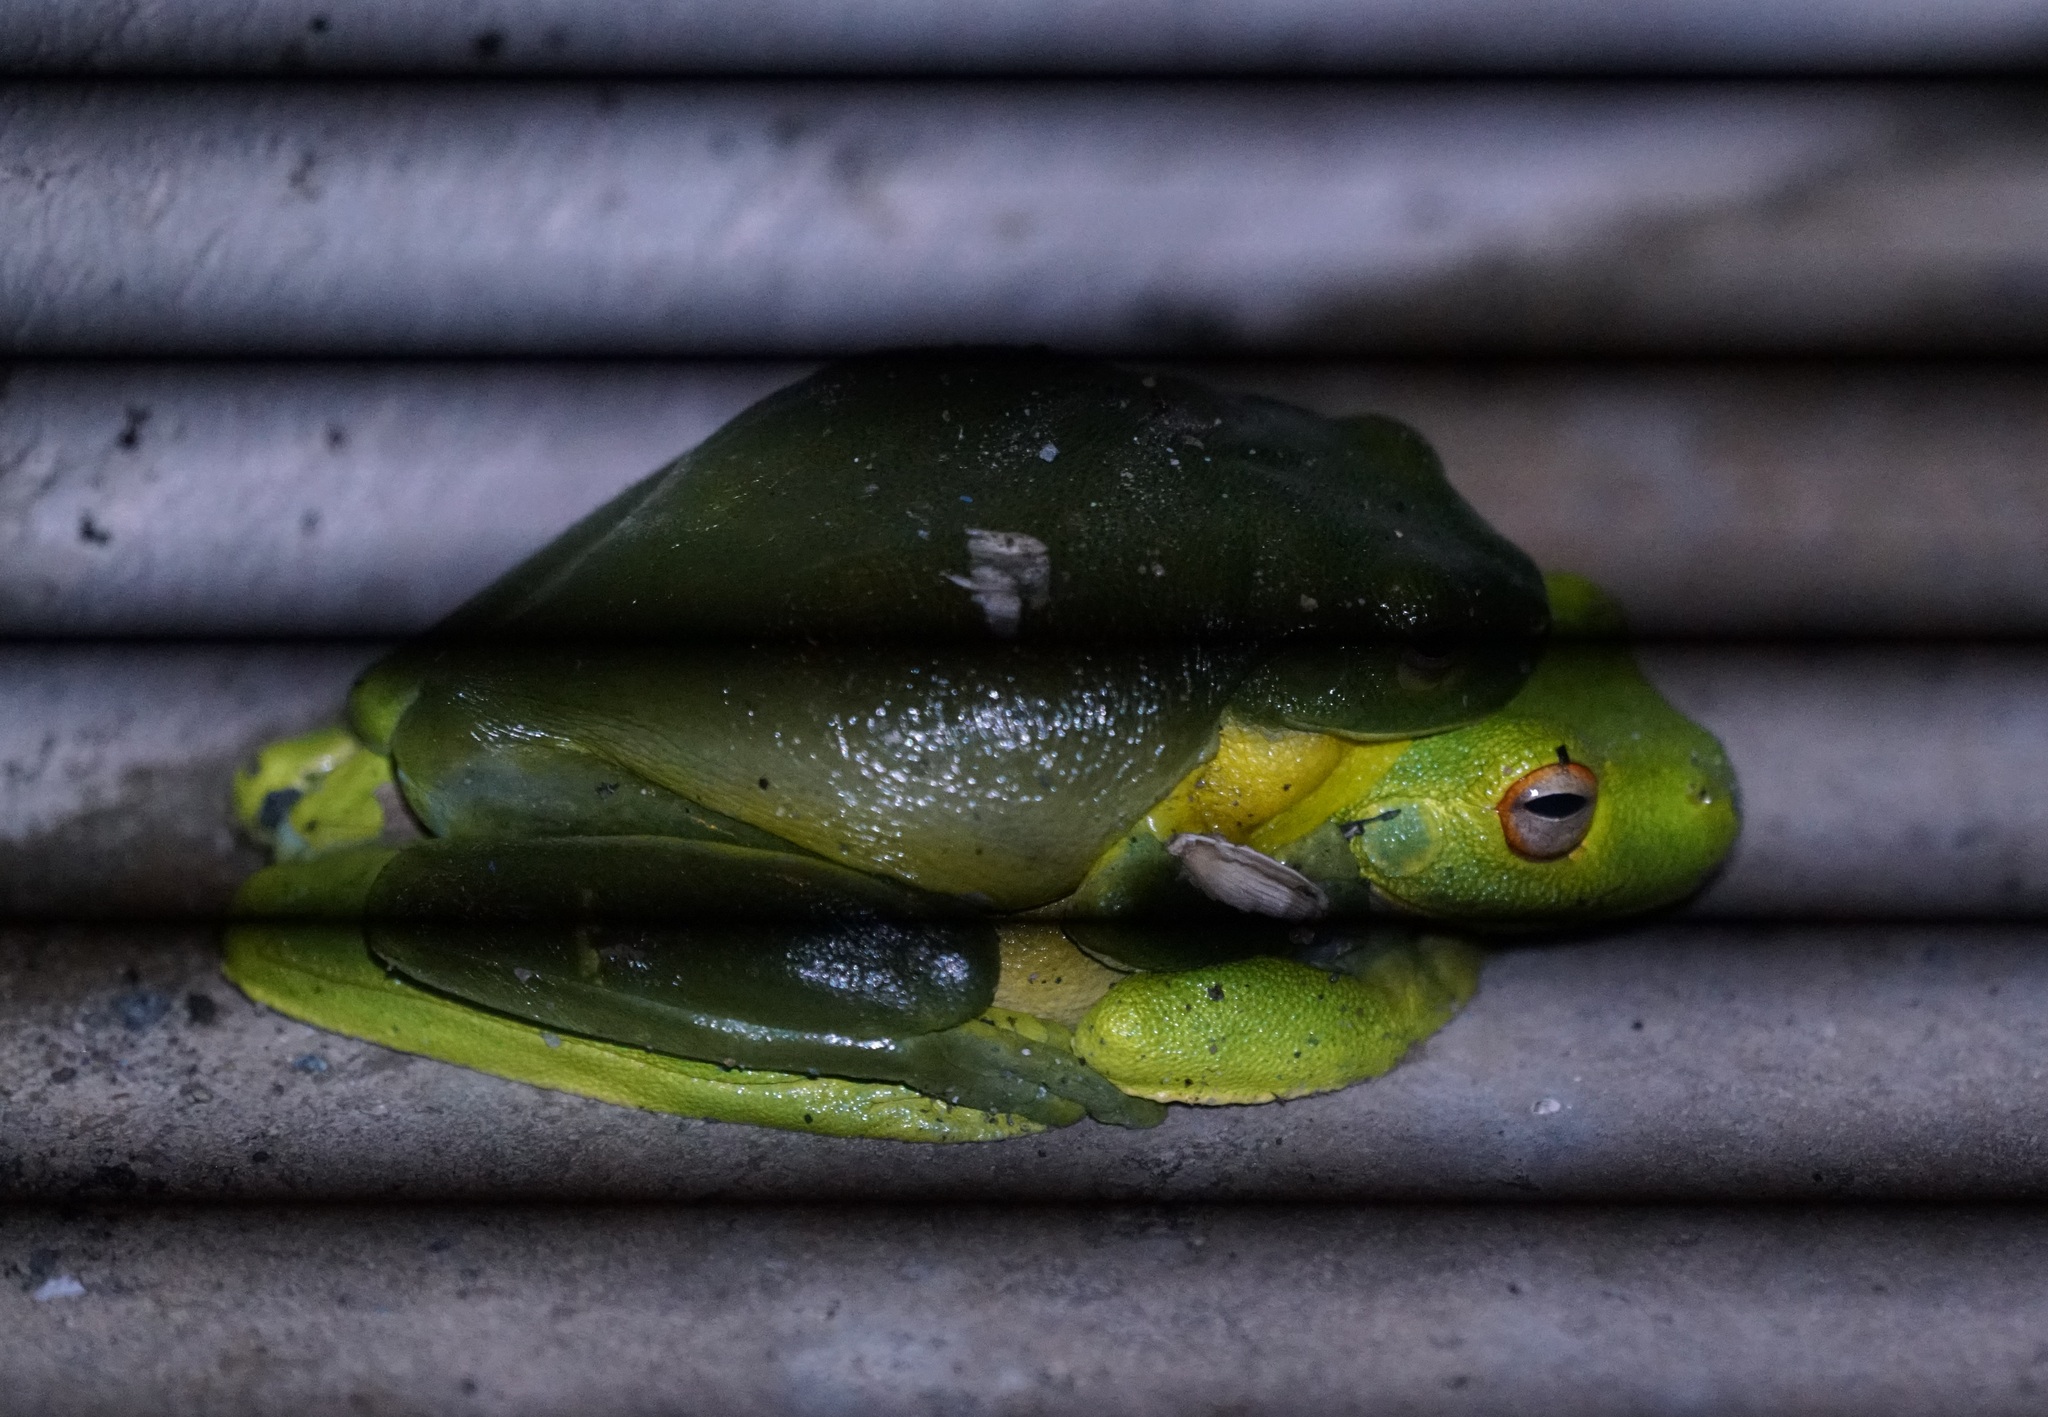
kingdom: Animalia
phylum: Chordata
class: Amphibia
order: Anura
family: Pelodryadidae
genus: Ranoidea
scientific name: Ranoidea chloris
